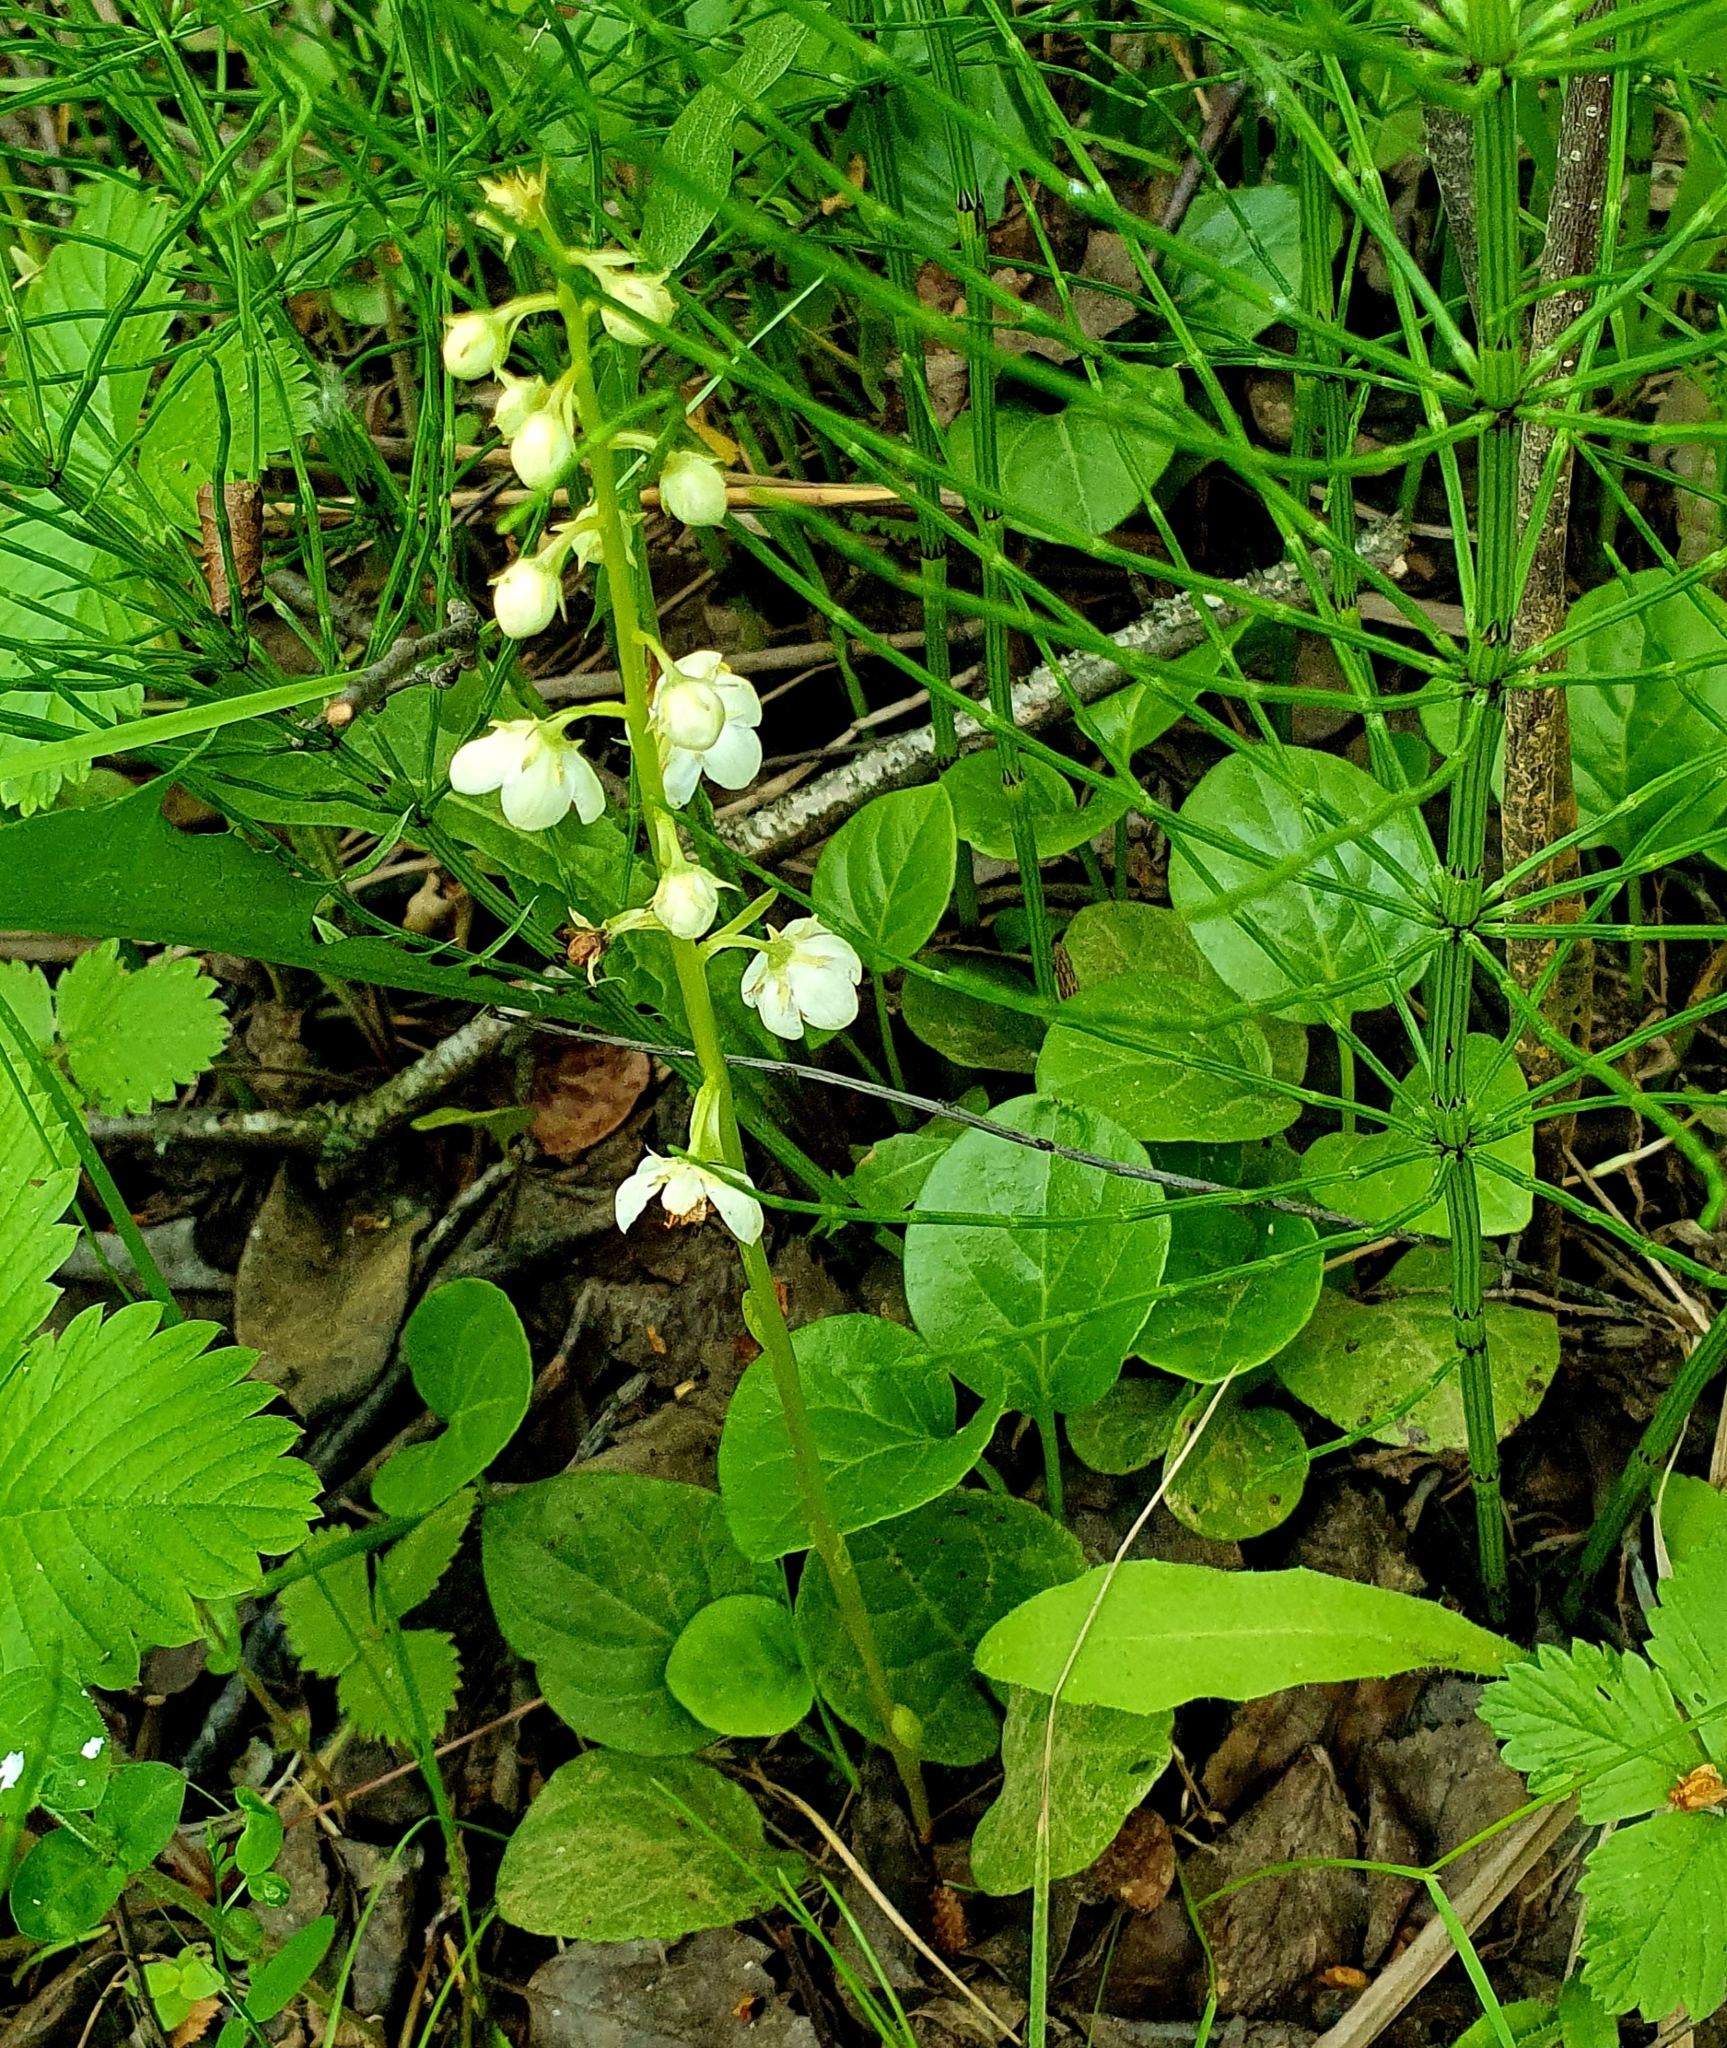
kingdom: Plantae
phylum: Tracheophyta
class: Magnoliopsida
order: Ericales
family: Ericaceae
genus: Pyrola
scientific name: Pyrola rotundifolia
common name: Round-leaved wintergreen
